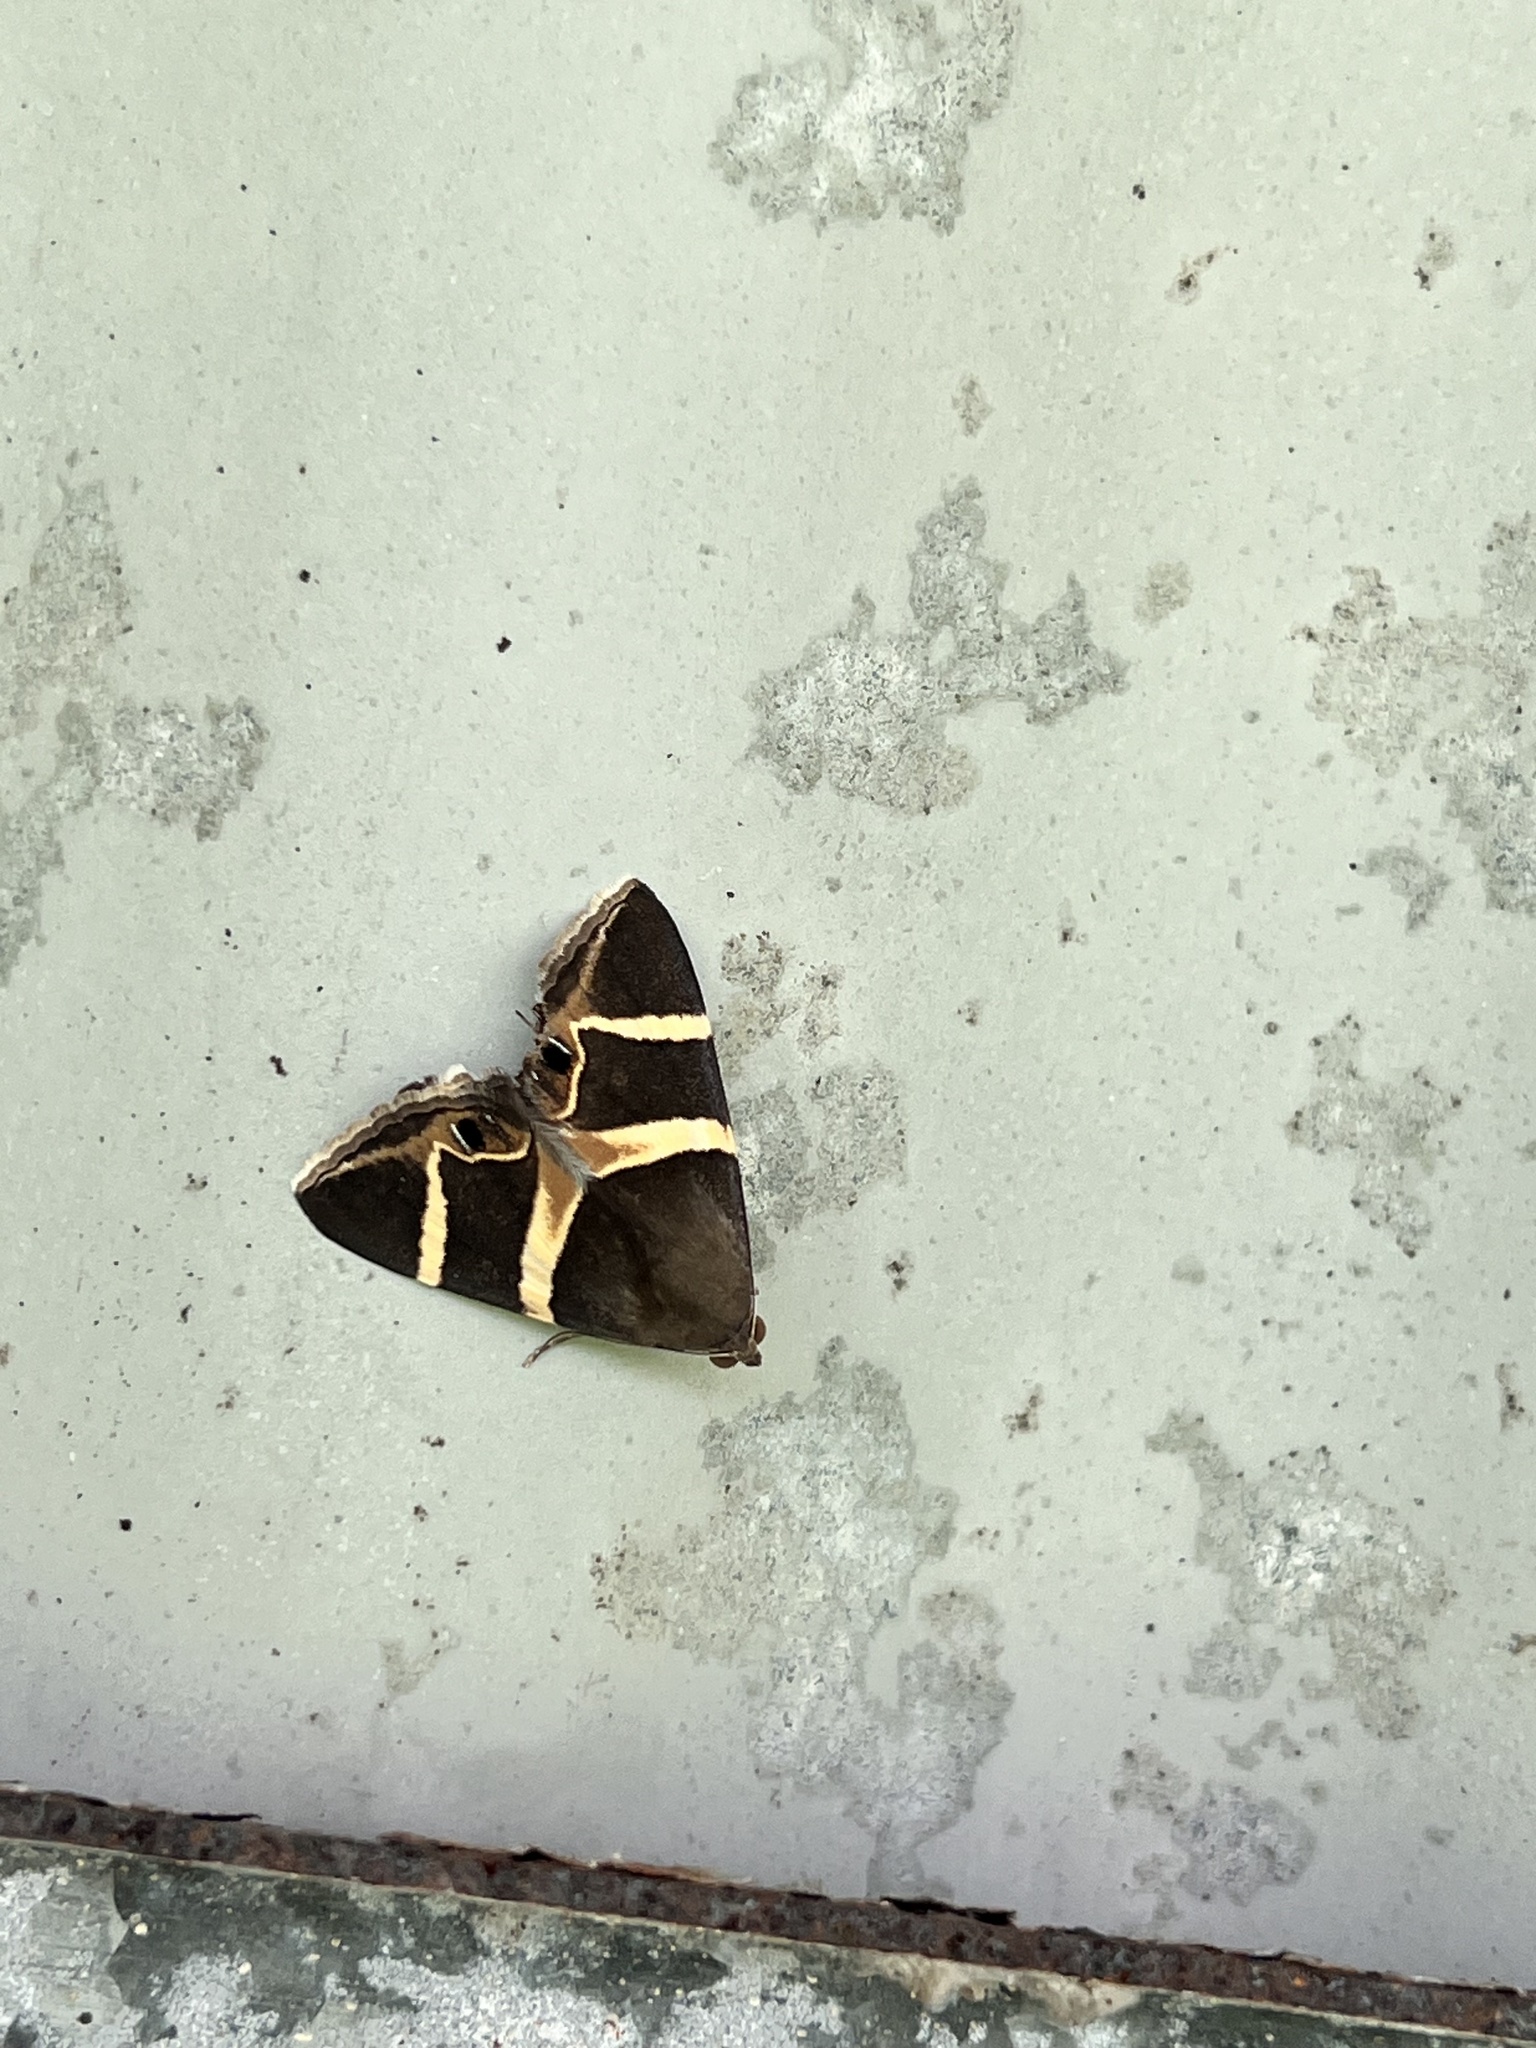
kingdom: Animalia
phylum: Arthropoda
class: Insecta
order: Lepidoptera
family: Erebidae
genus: Grammodes
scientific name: Grammodes oculicola
